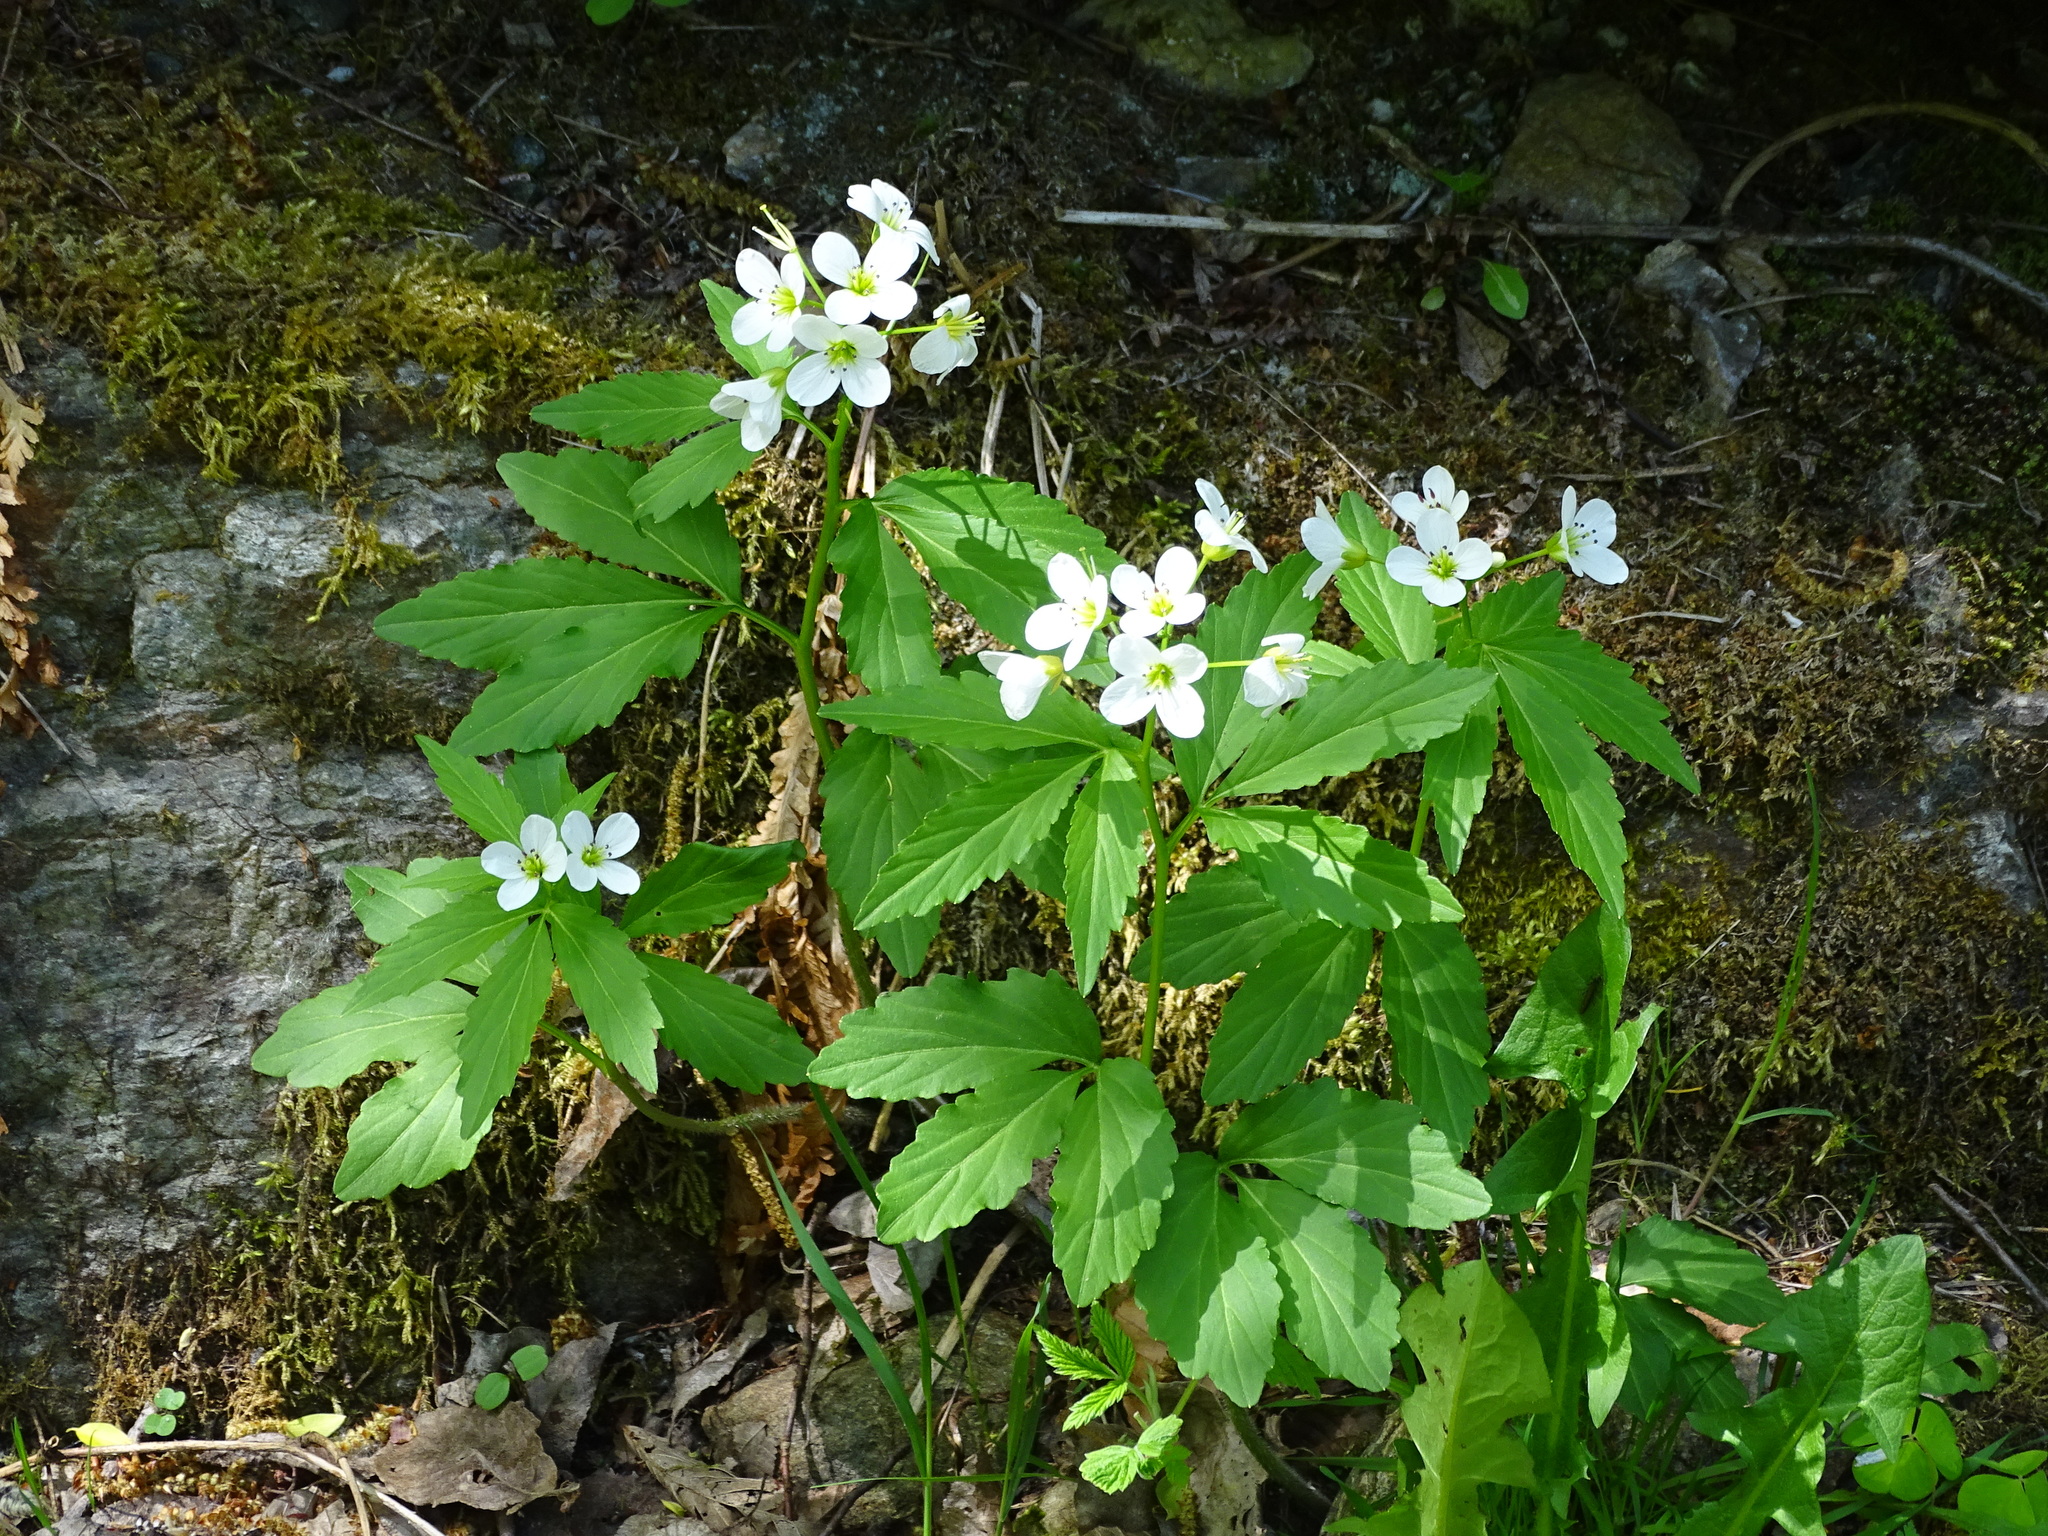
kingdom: Plantae
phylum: Tracheophyta
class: Magnoliopsida
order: Brassicales
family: Brassicaceae
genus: Cardamine
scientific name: Cardamine waldsteinii
